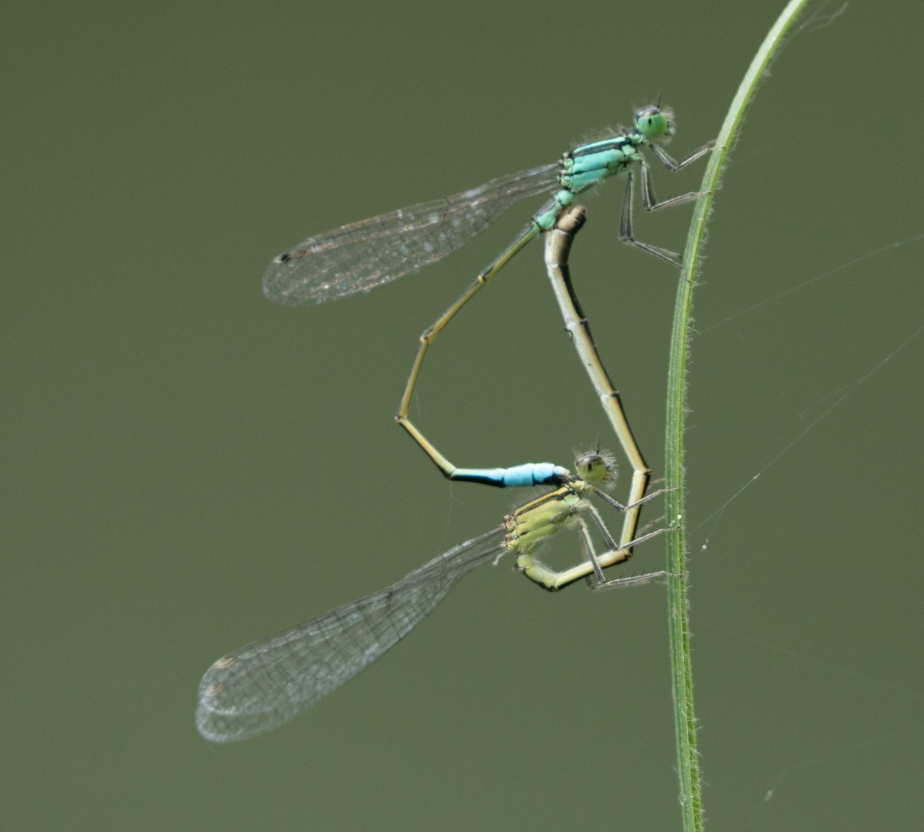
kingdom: Animalia
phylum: Arthropoda
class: Insecta
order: Odonata
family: Coenagrionidae
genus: Ischnura
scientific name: Ischnura elegans
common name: Blue-tailed damselfly
